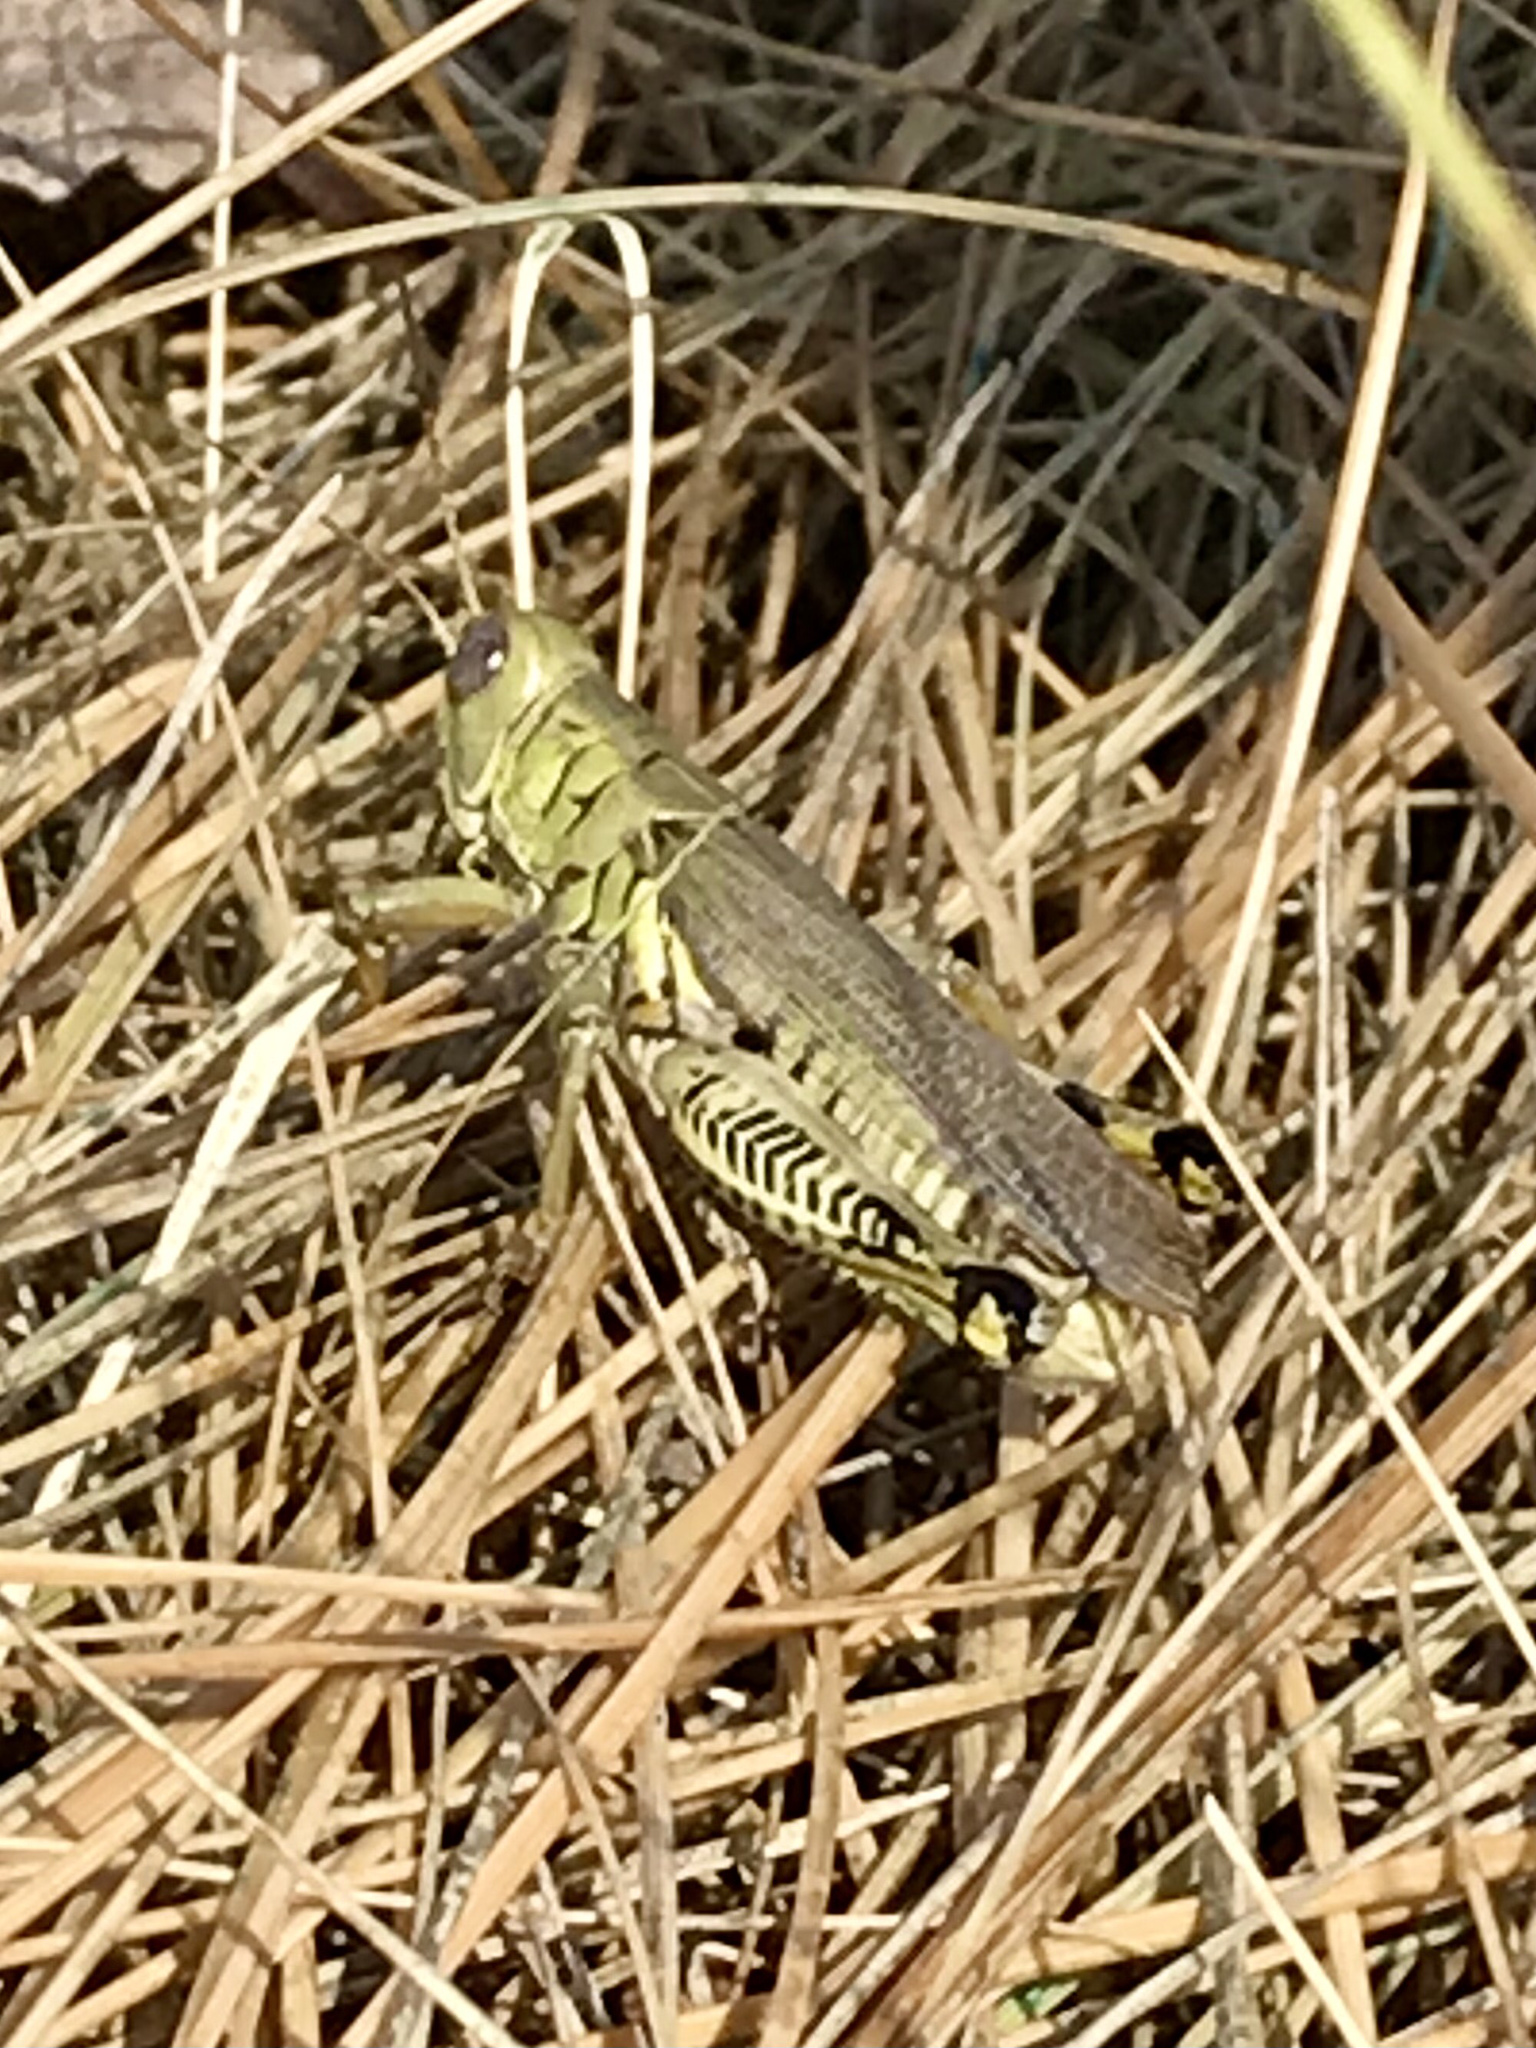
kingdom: Animalia
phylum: Arthropoda
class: Insecta
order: Orthoptera
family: Acrididae
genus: Melanoplus
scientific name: Melanoplus differentialis
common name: Differential grasshopper
